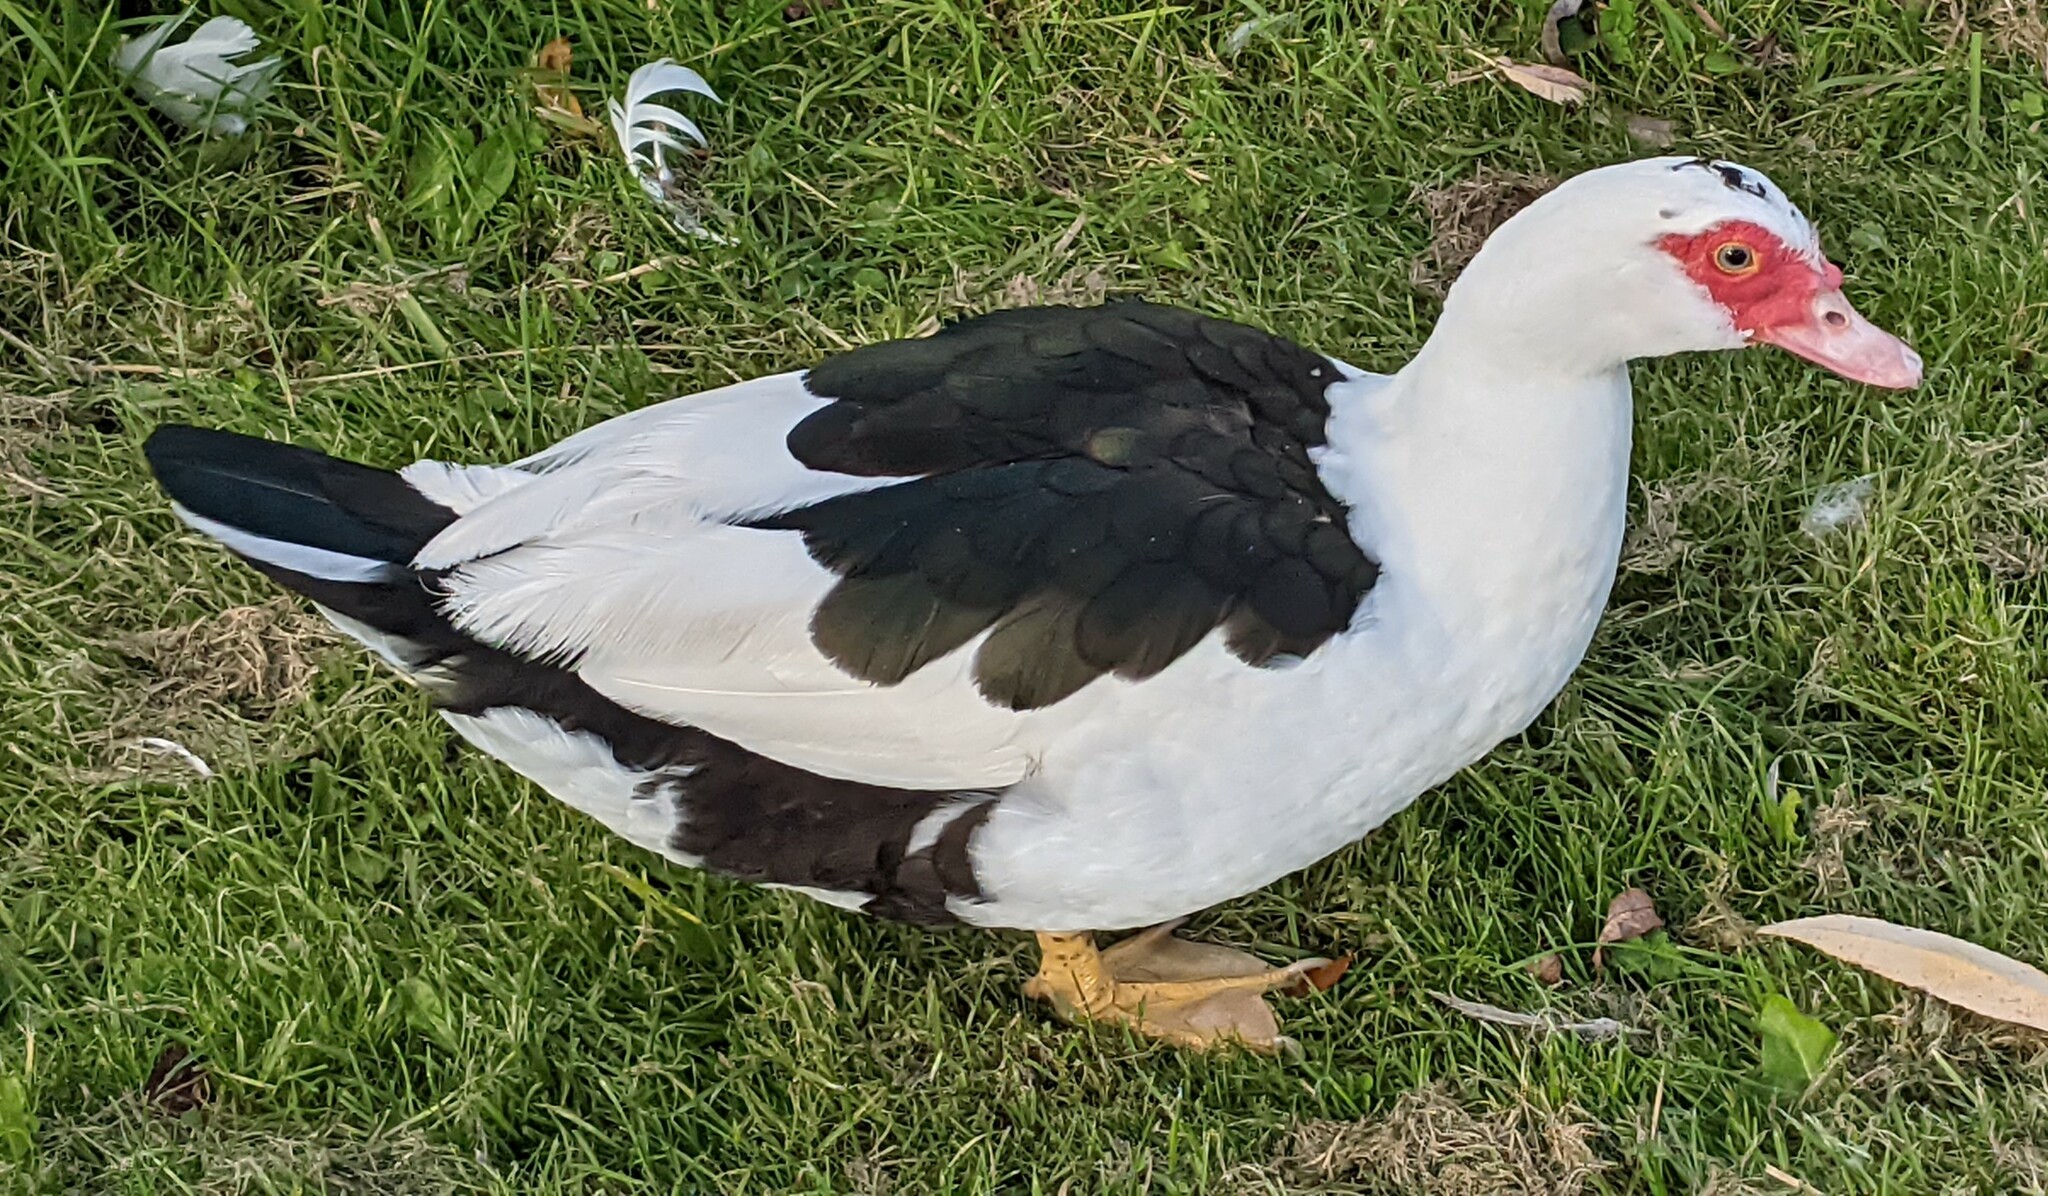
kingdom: Animalia
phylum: Chordata
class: Aves
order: Anseriformes
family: Anatidae
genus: Cairina
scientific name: Cairina moschata
